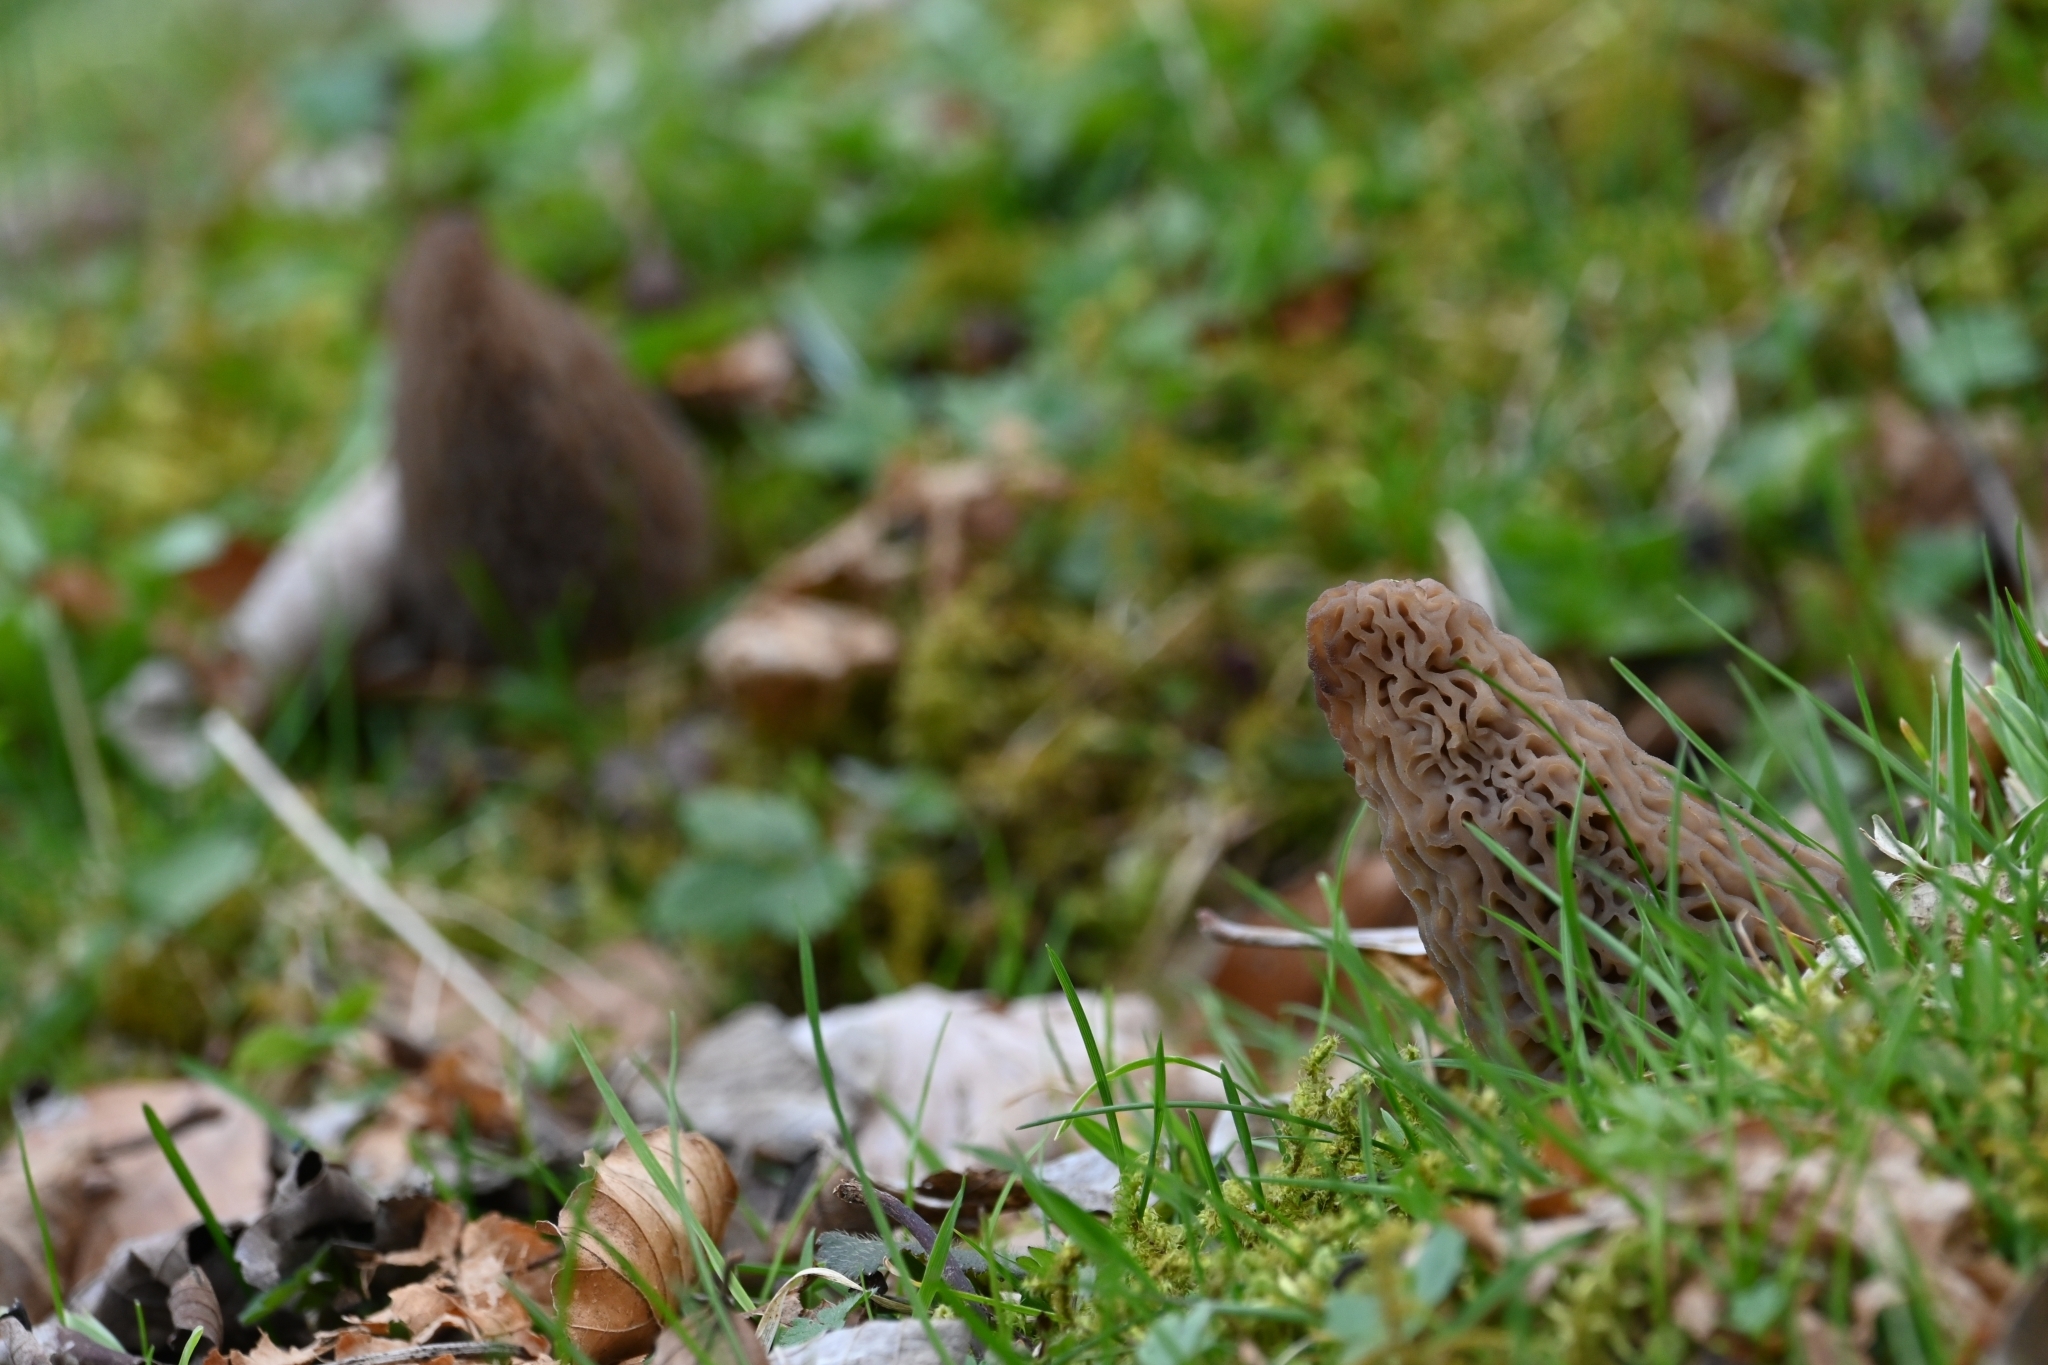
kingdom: Fungi
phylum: Ascomycota
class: Pezizomycetes
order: Pezizales
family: Morchellaceae
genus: Morchella
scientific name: Morchella
